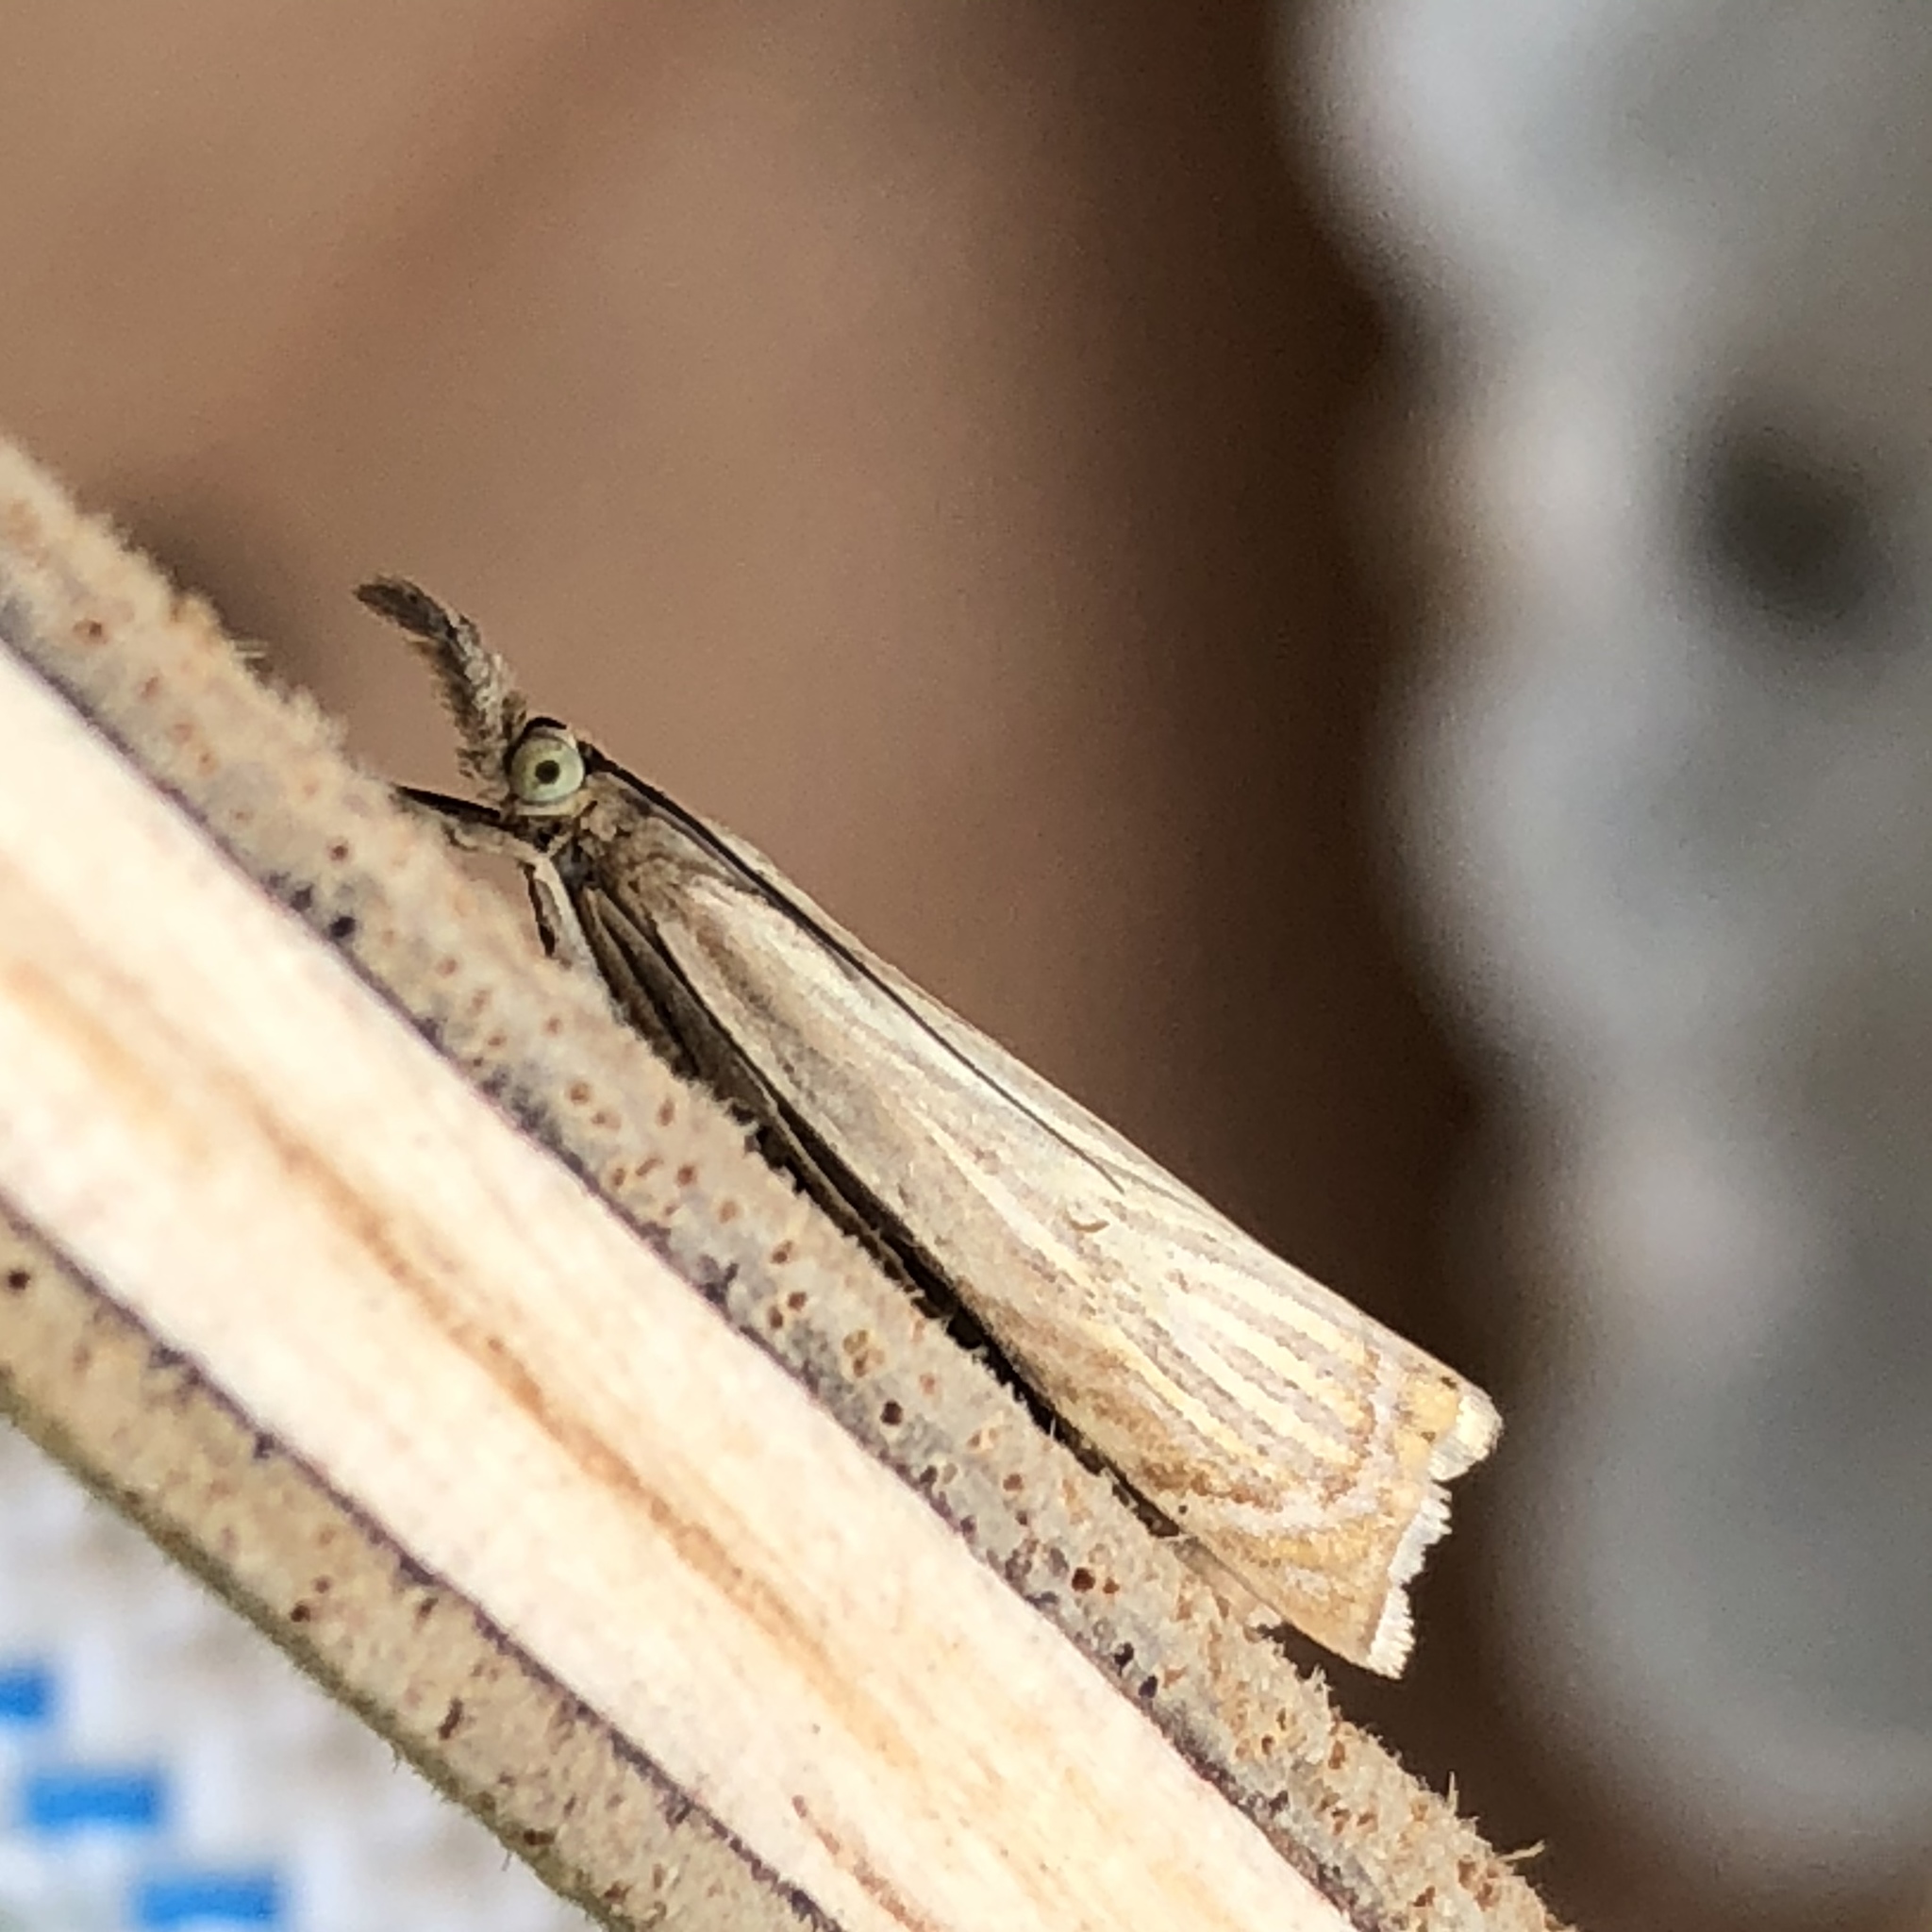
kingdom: Animalia
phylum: Arthropoda
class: Insecta
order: Lepidoptera
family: Crambidae
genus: Chrysoteuchia
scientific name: Chrysoteuchia culmella
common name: Garden grass-veneer
